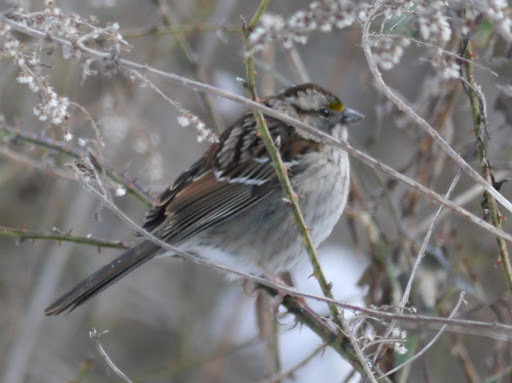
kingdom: Animalia
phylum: Chordata
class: Aves
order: Passeriformes
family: Passerellidae
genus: Zonotrichia
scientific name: Zonotrichia albicollis
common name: White-throated sparrow
